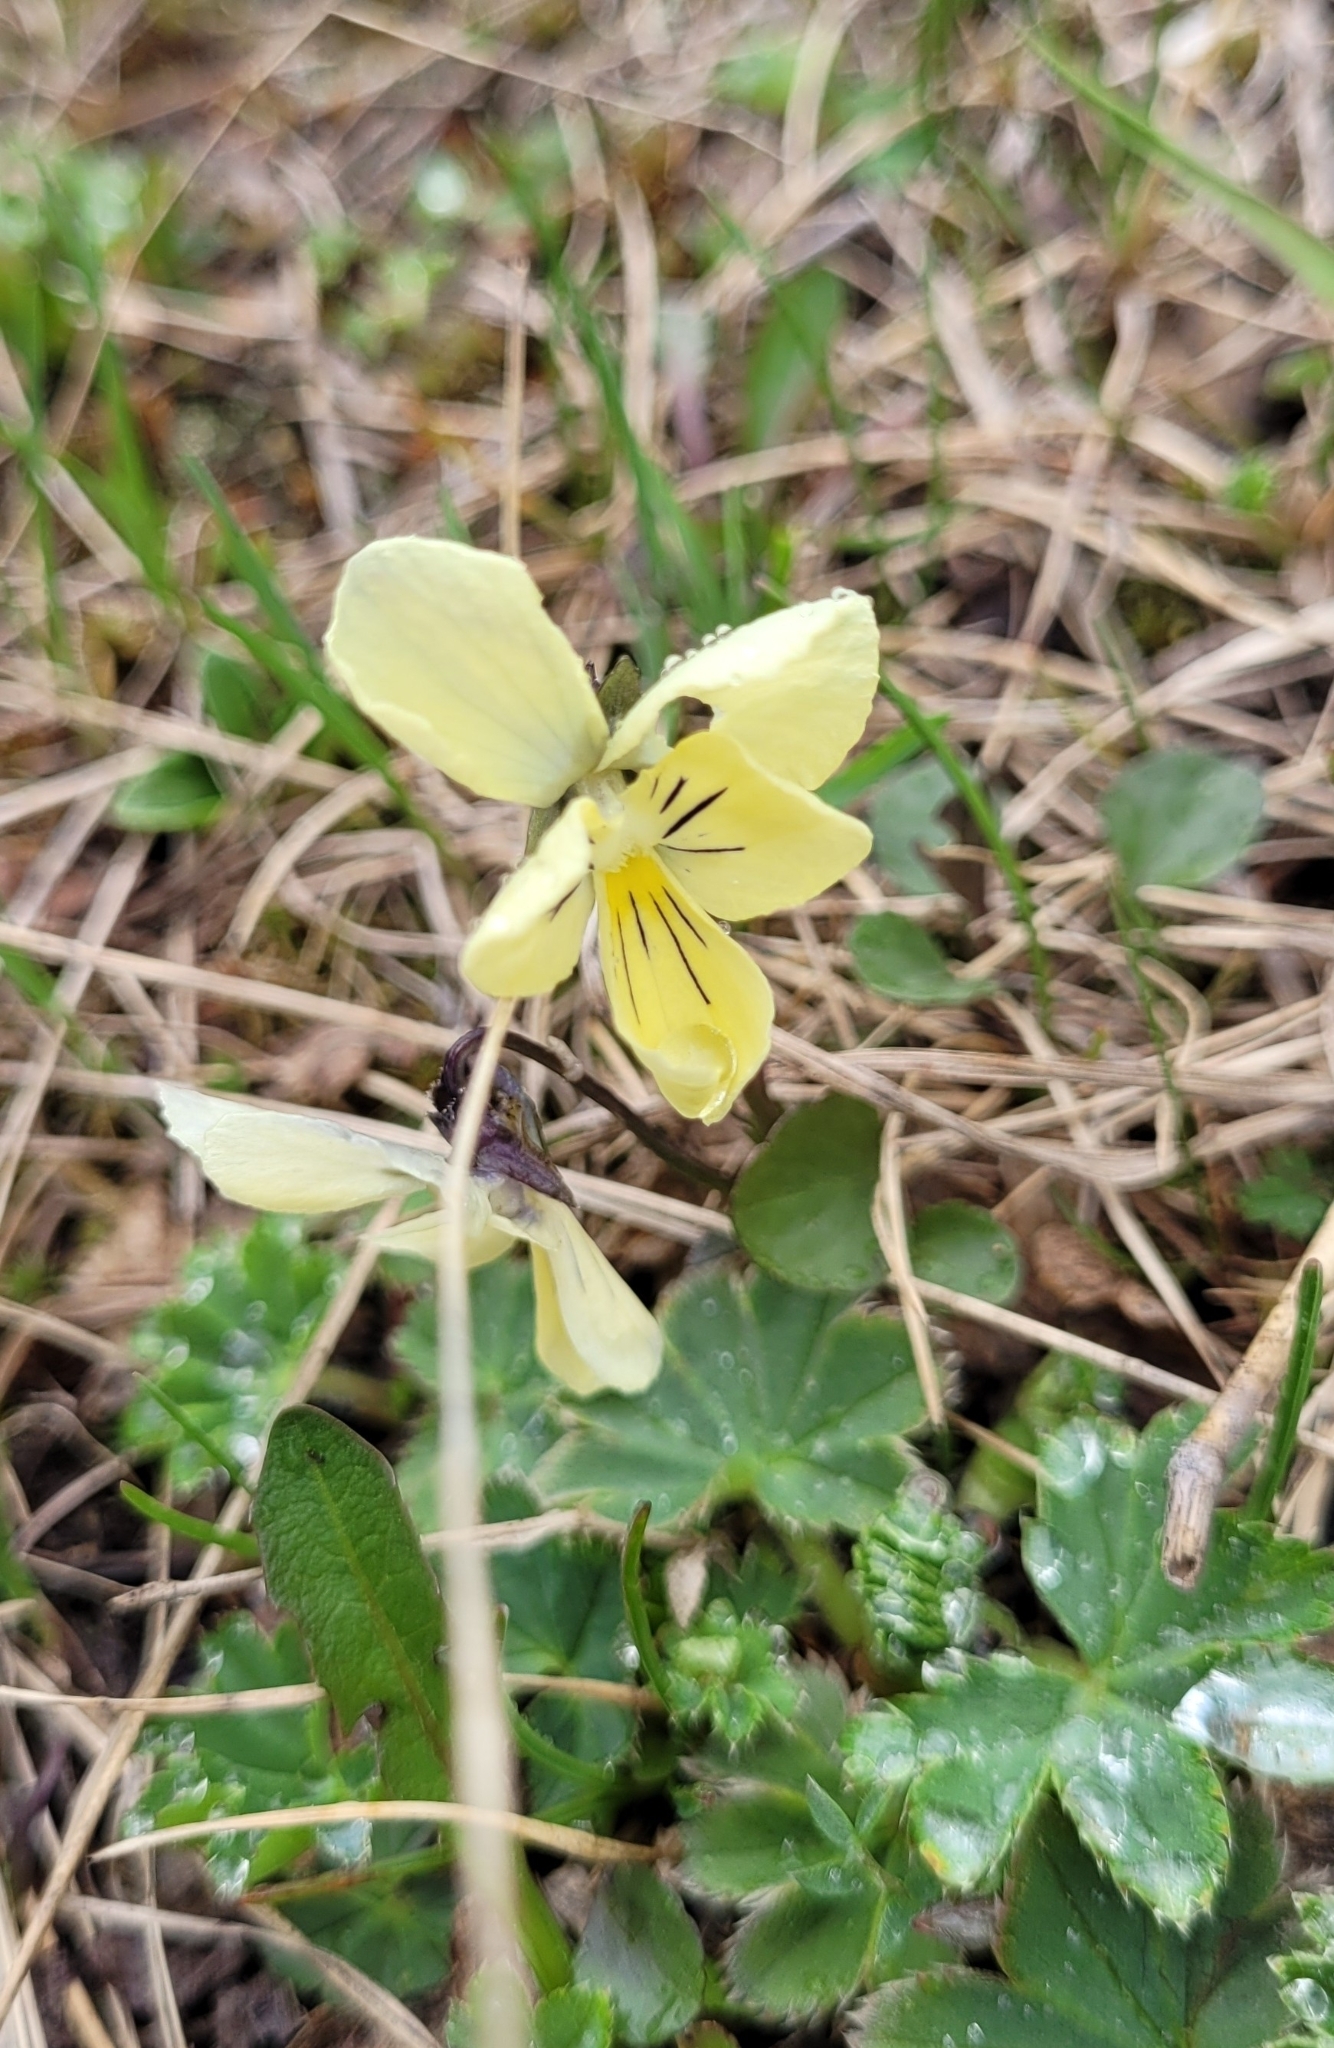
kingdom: Plantae
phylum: Tracheophyta
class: Magnoliopsida
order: Malpighiales
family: Violaceae
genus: Viola
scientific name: Viola altaica
